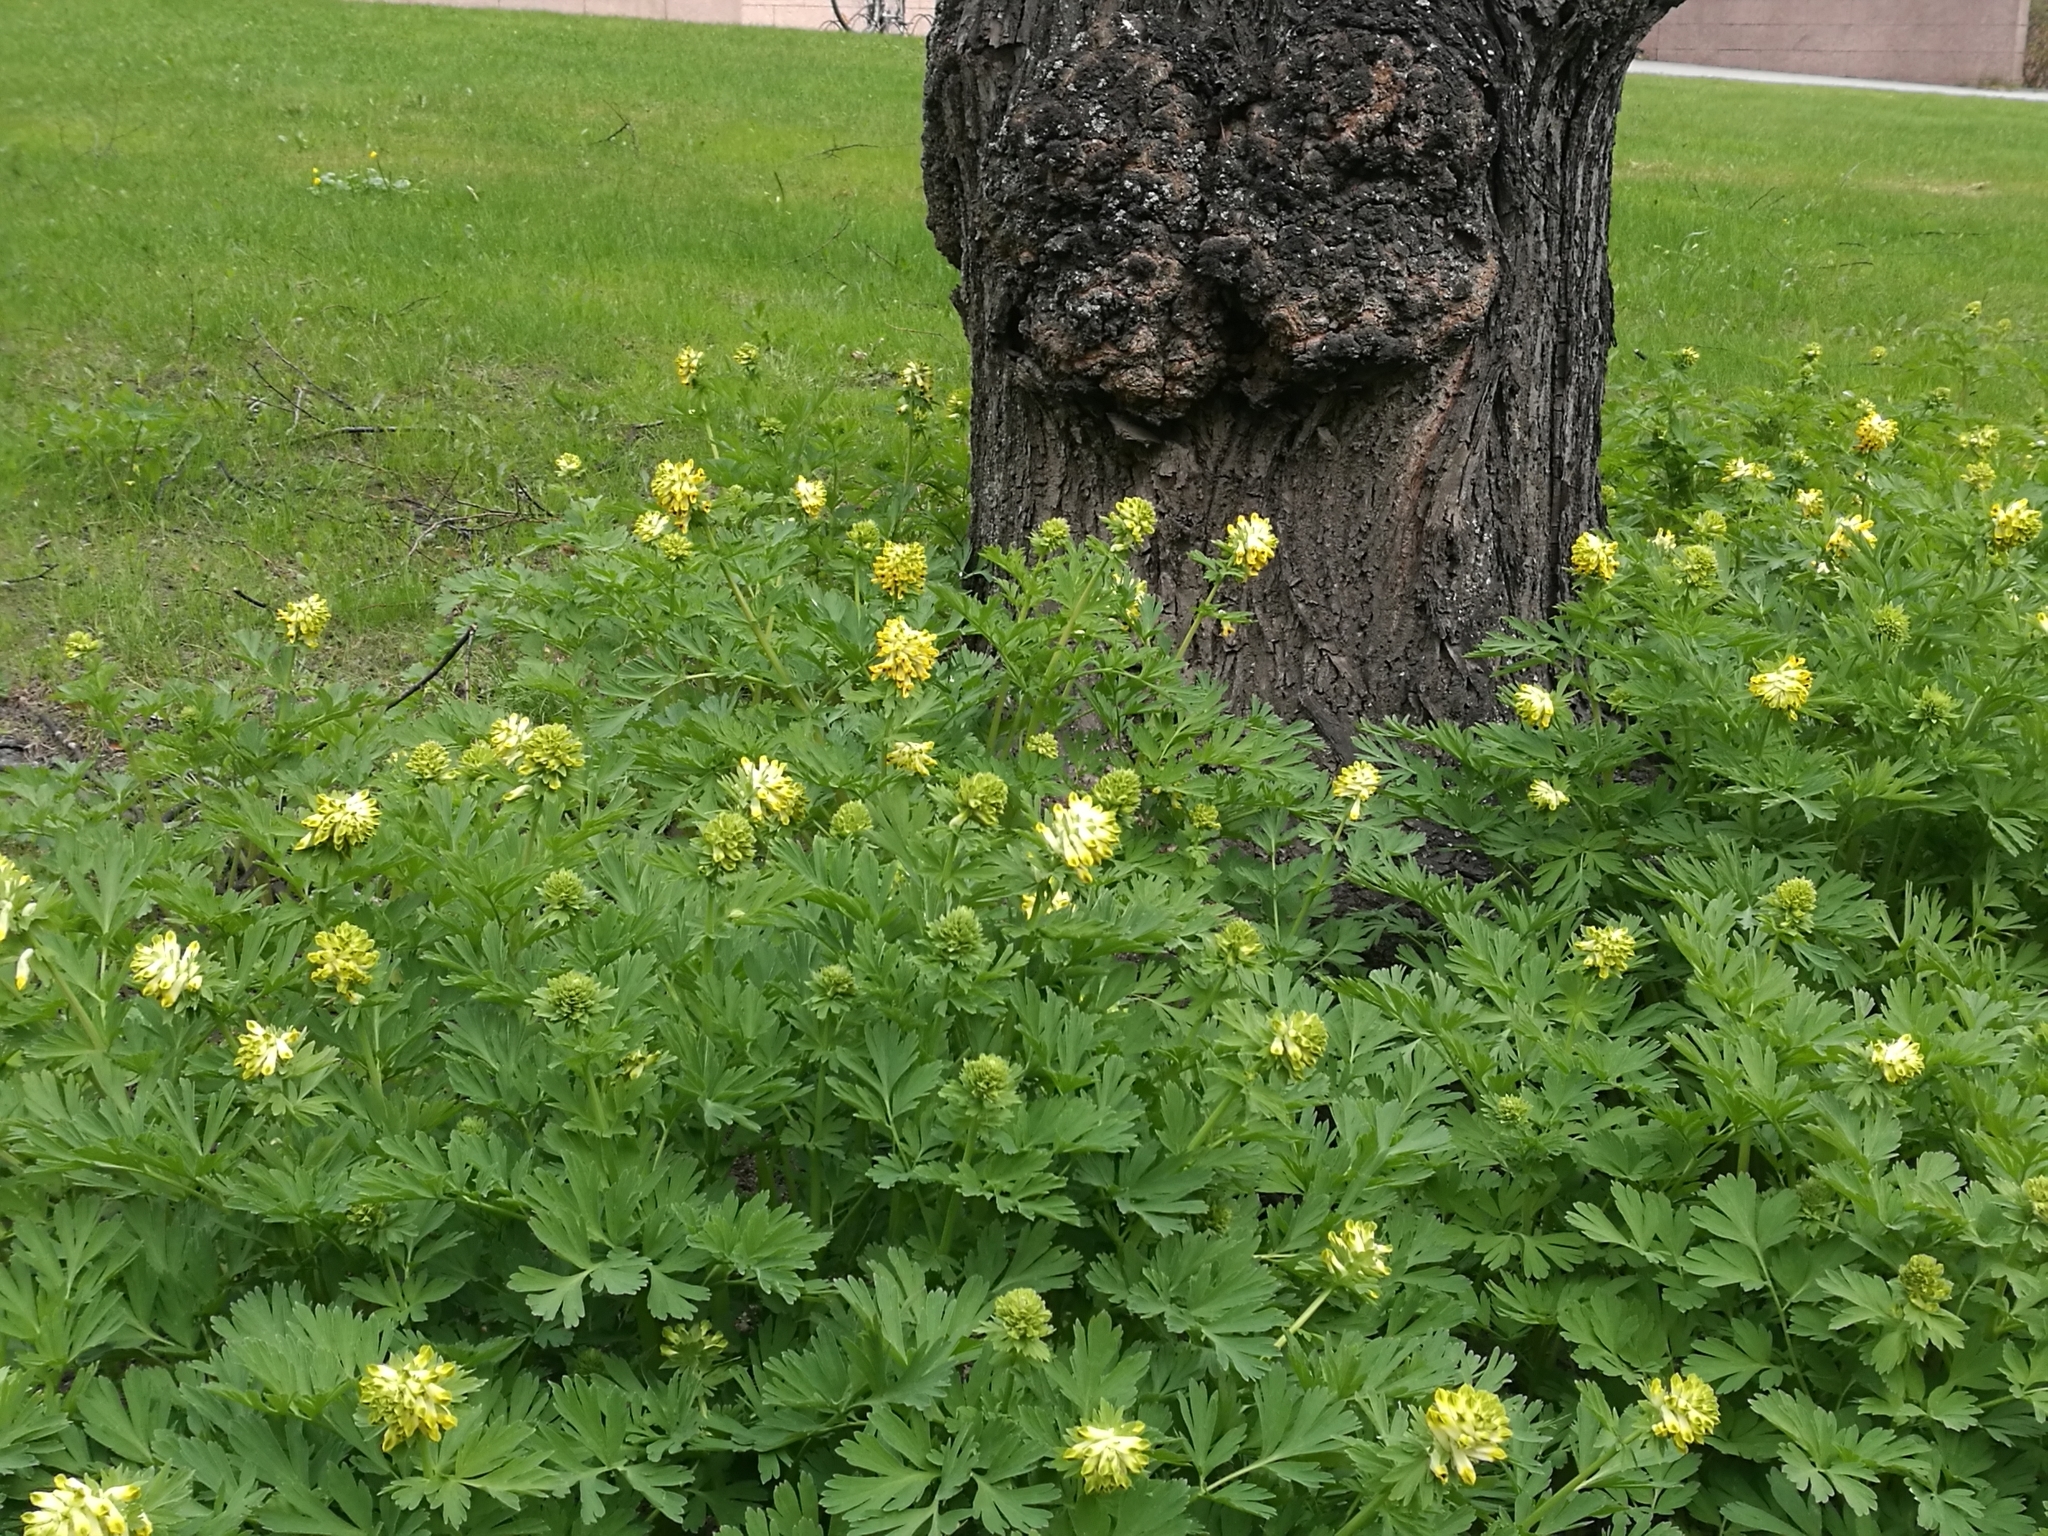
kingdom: Plantae
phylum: Tracheophyta
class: Magnoliopsida
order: Ranunculales
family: Papaveraceae
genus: Corydalis
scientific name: Corydalis nobilis
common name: Siberian corydalis
